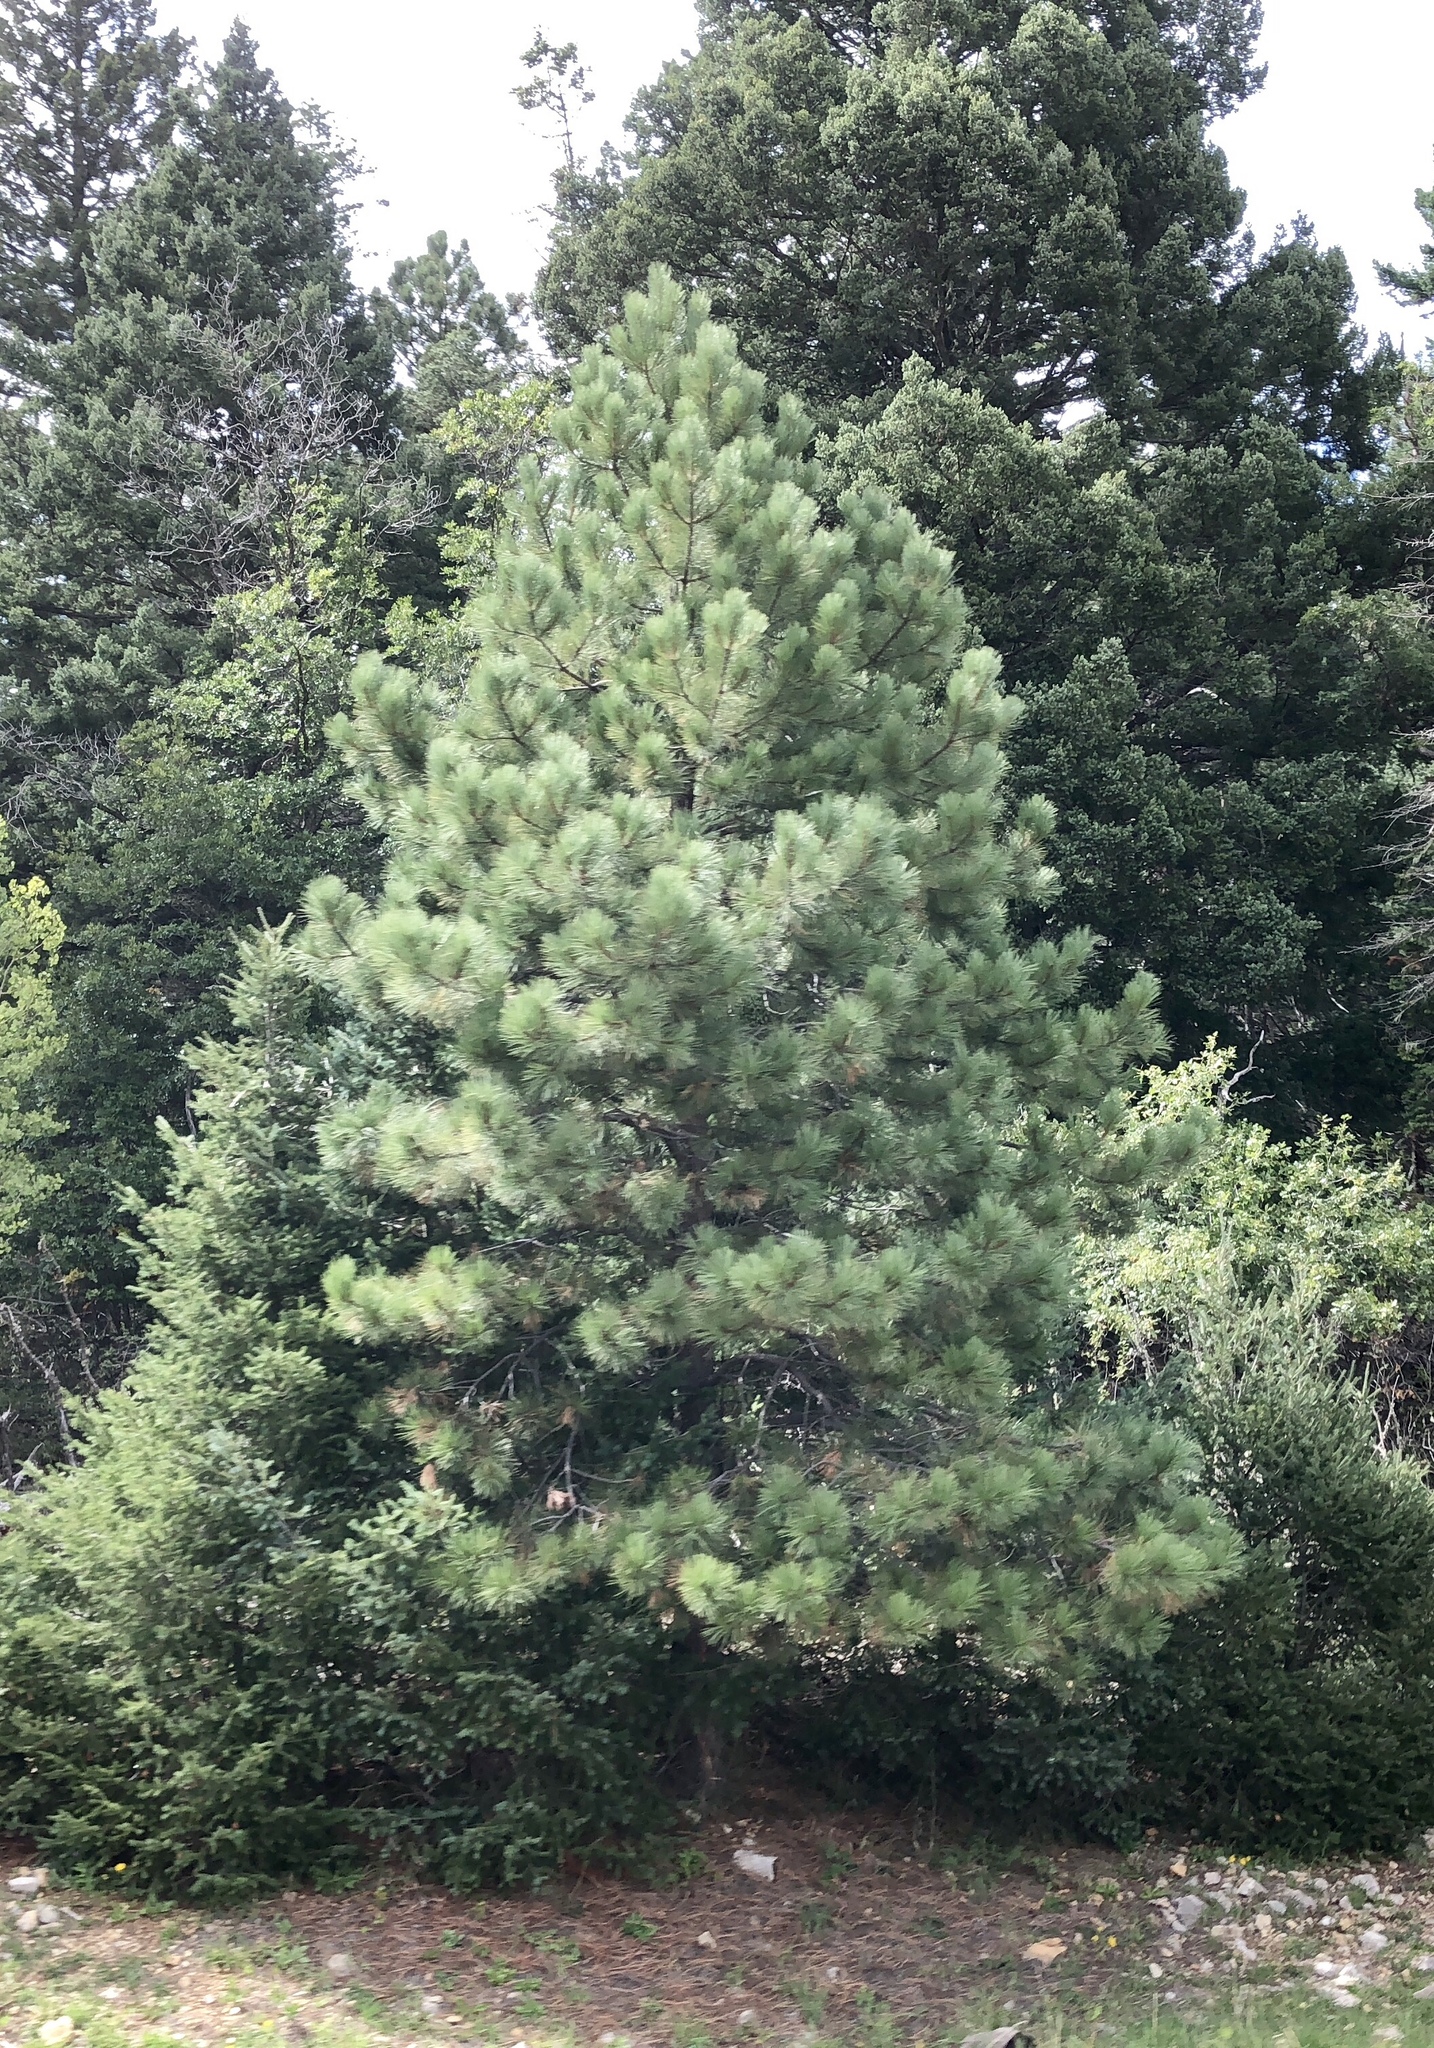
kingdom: Plantae
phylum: Tracheophyta
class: Pinopsida
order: Pinales
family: Pinaceae
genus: Pinus
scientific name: Pinus ponderosa
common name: Western yellow-pine
